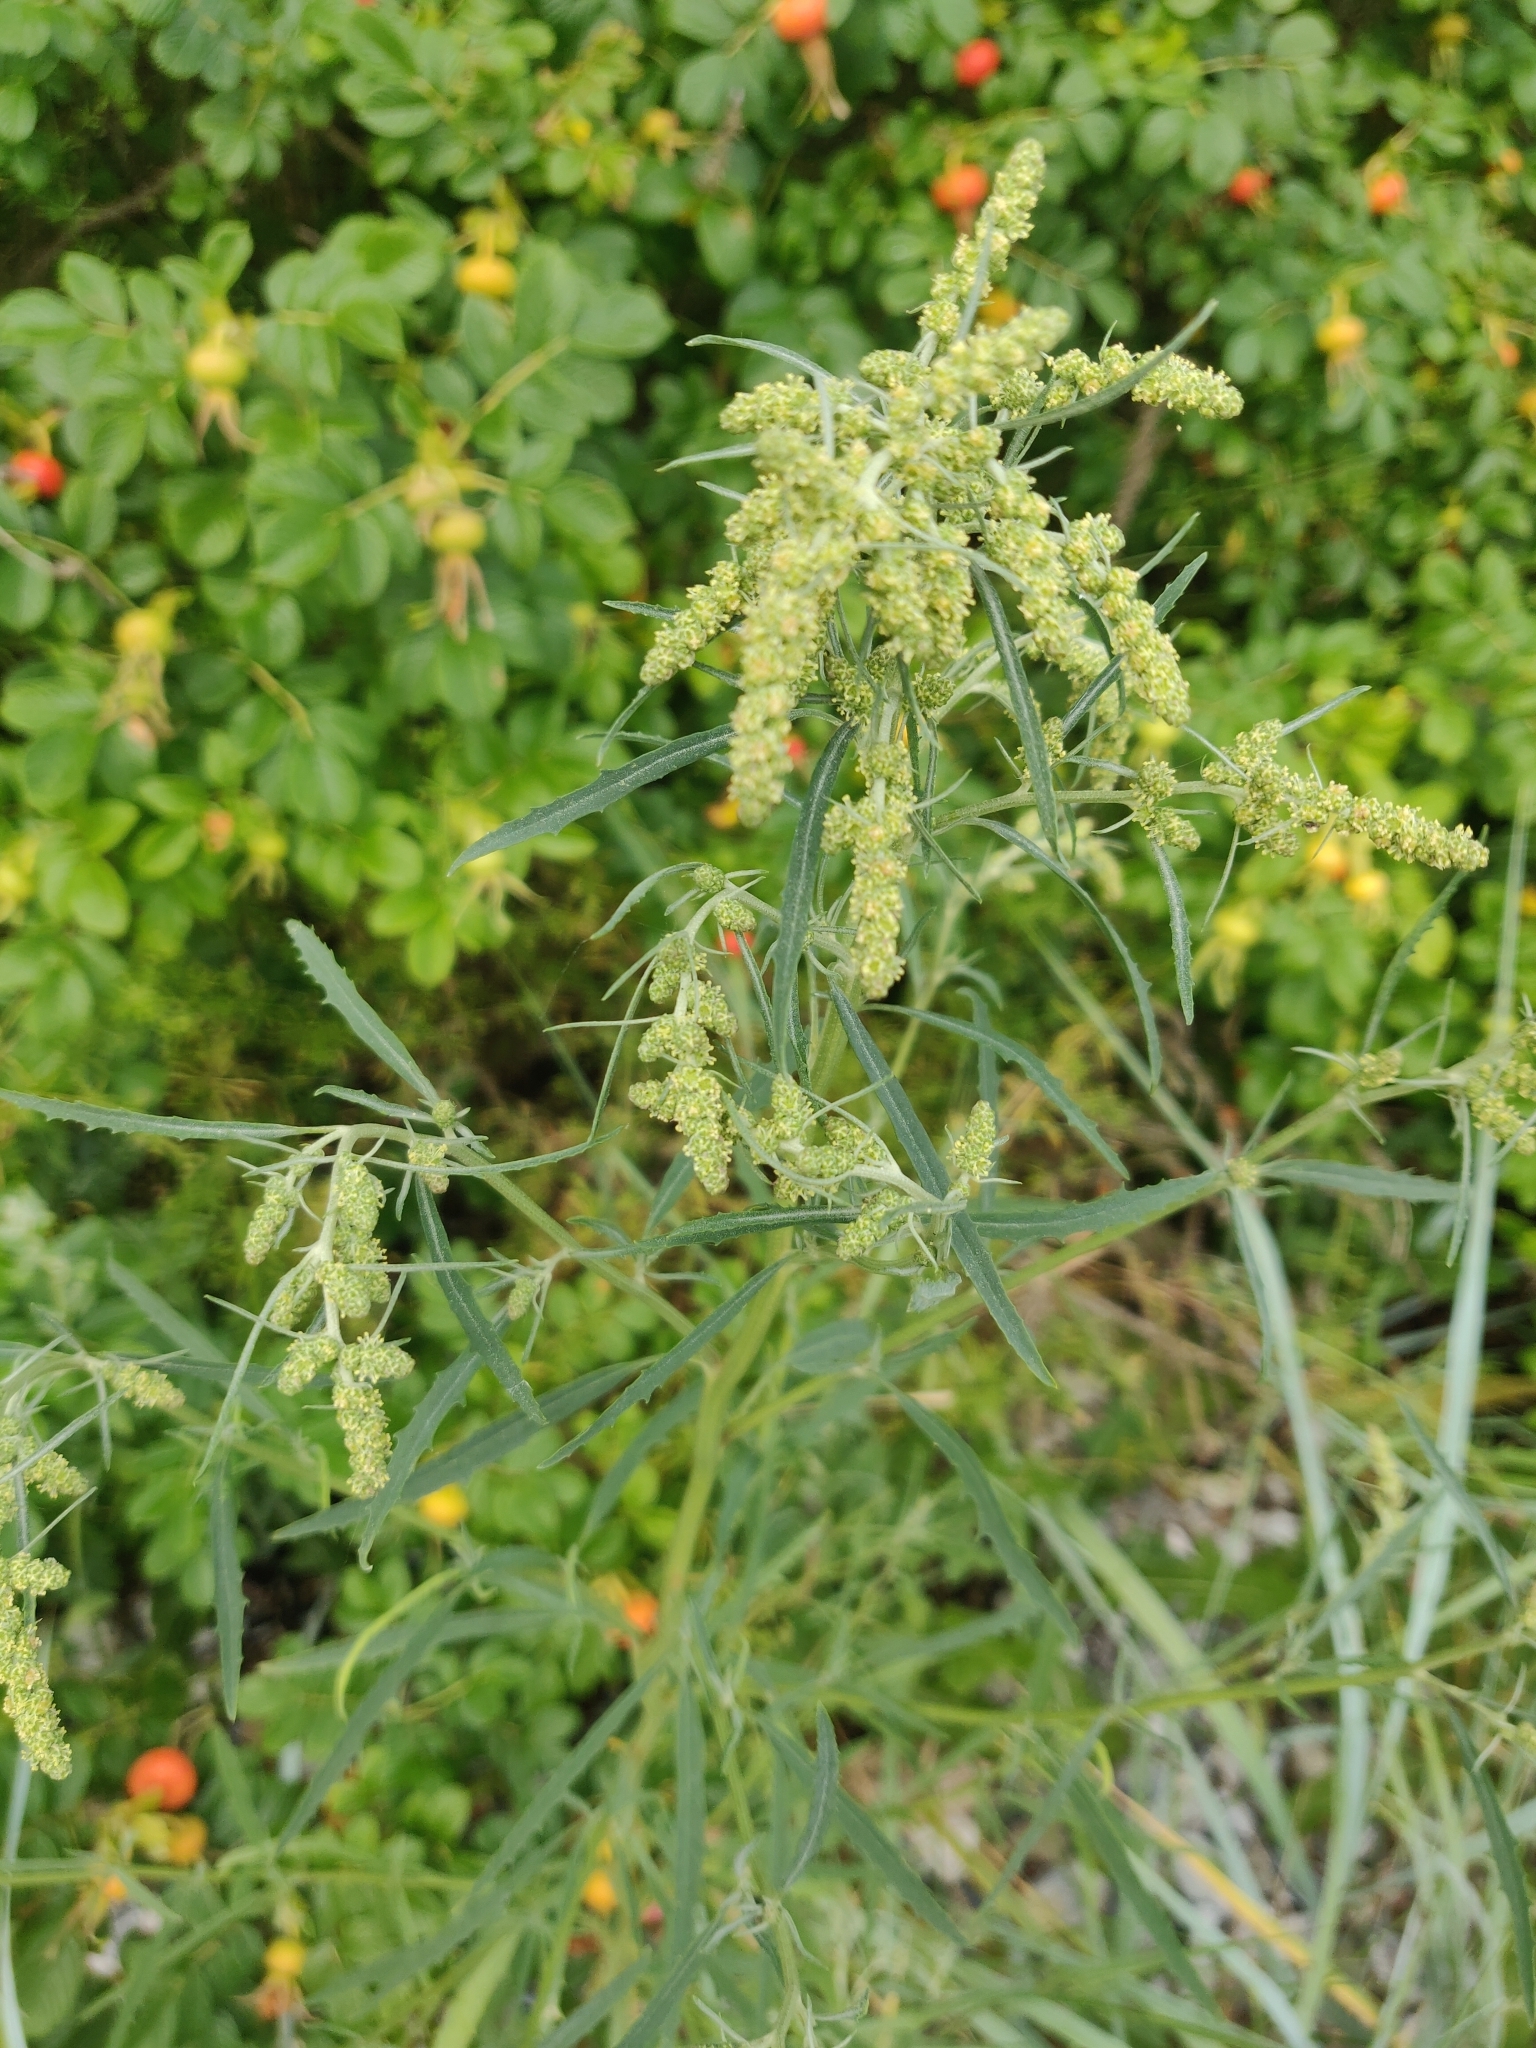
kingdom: Plantae
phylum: Tracheophyta
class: Magnoliopsida
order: Caryophyllales
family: Amaranthaceae
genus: Atriplex
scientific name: Atriplex littoralis
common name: Grass-leaved orache
